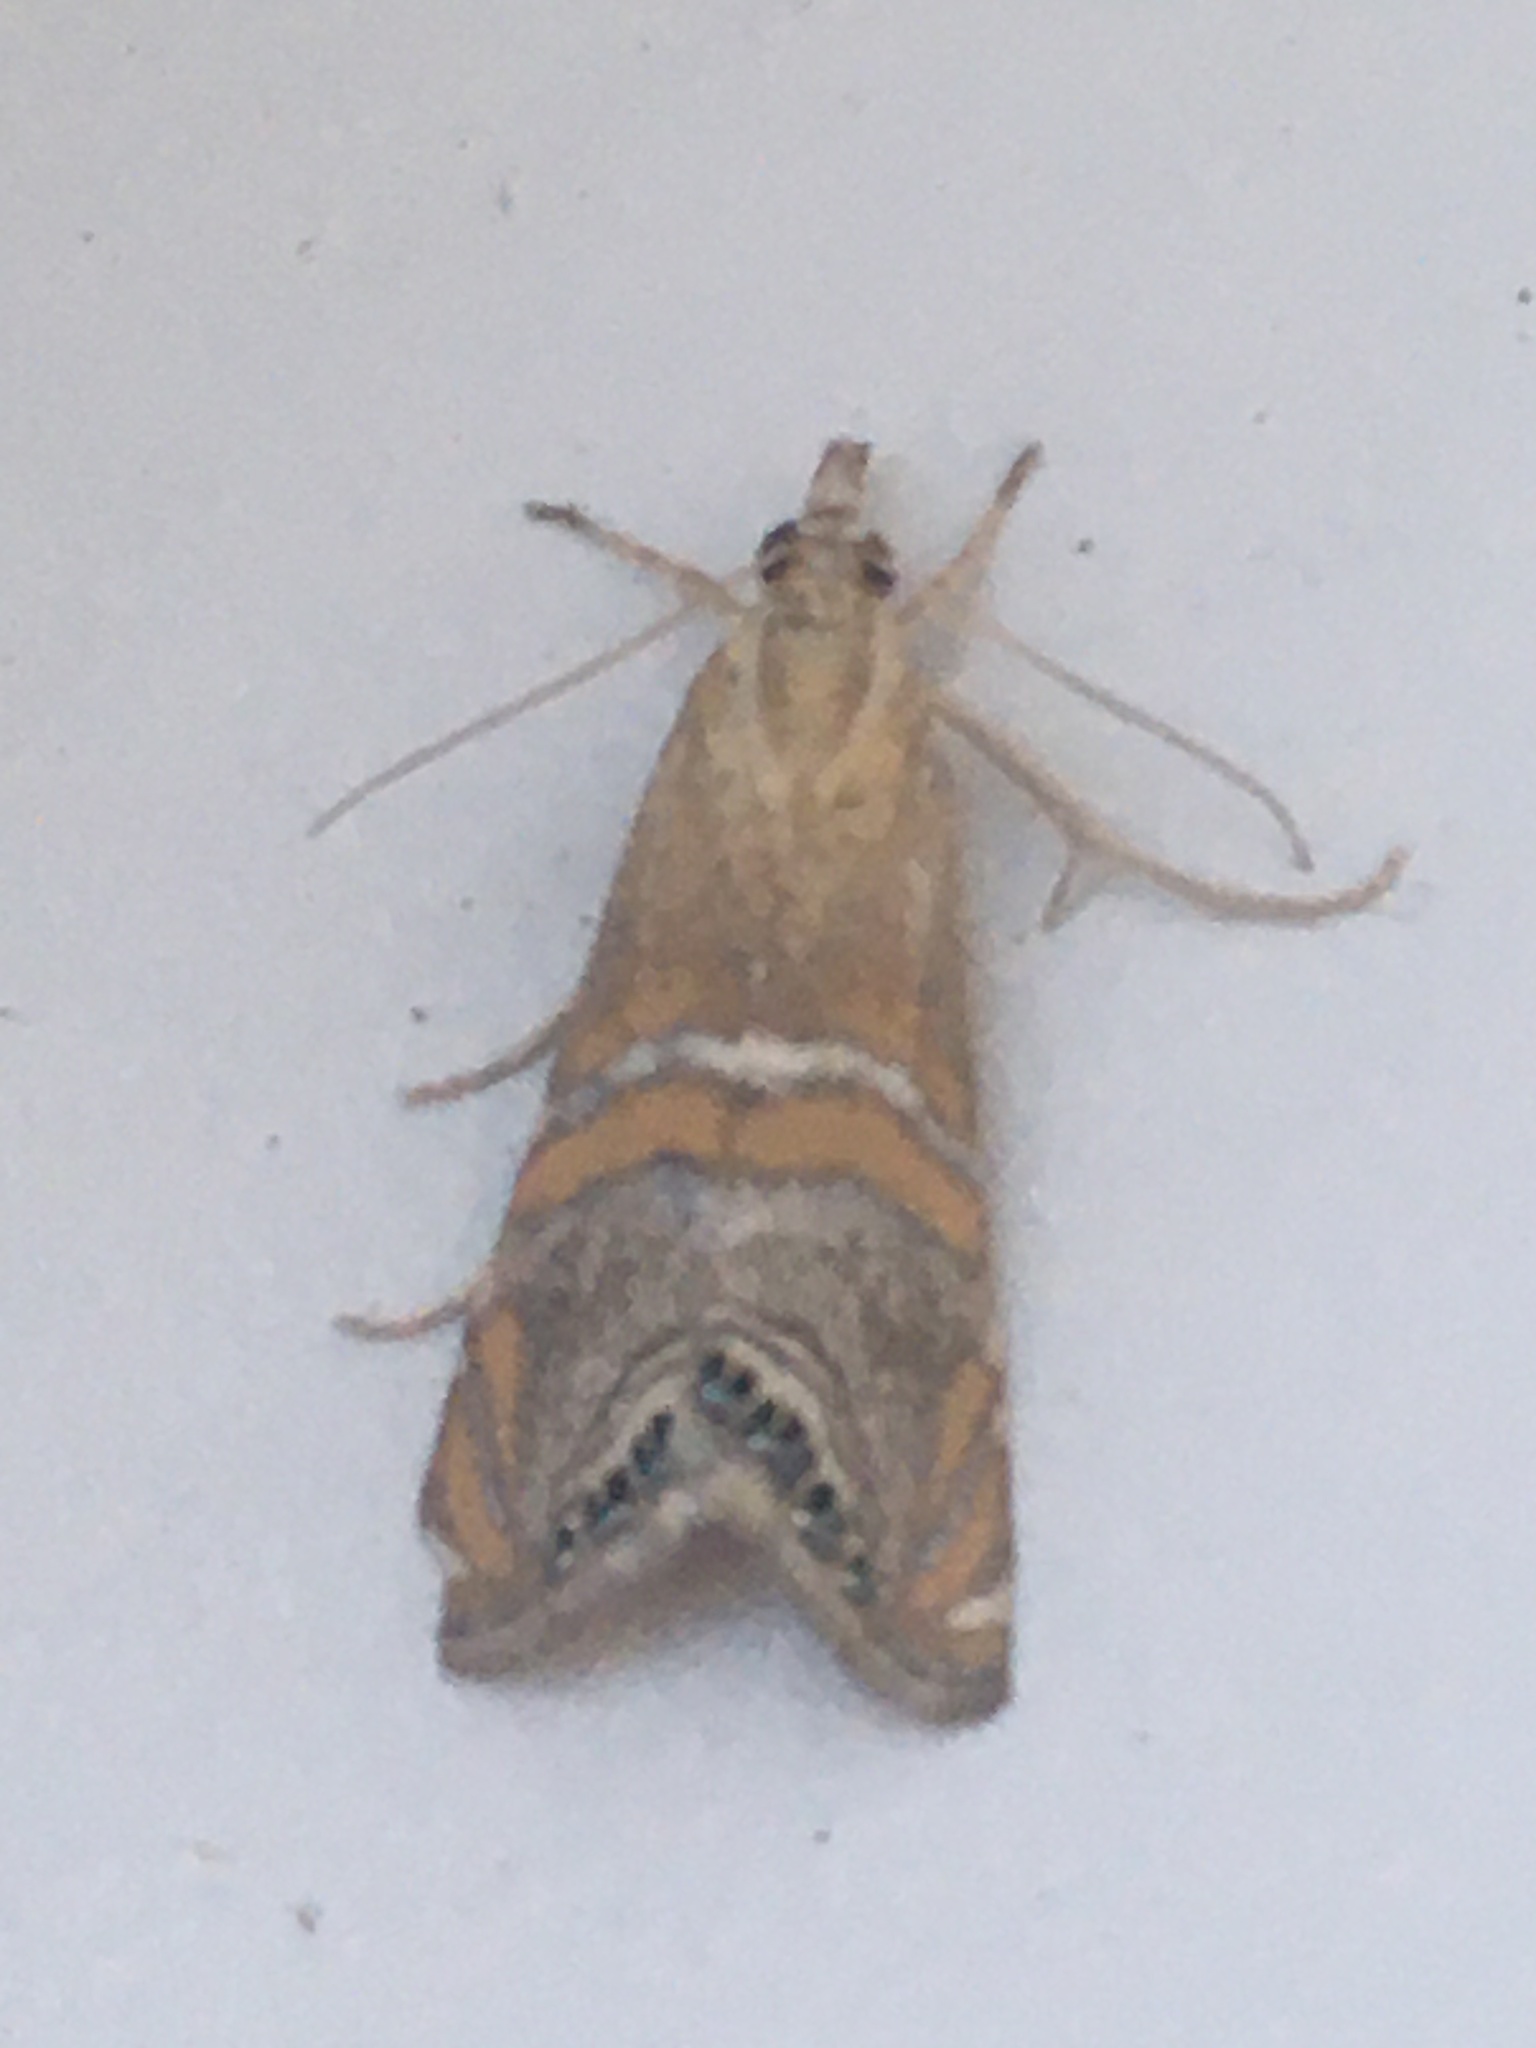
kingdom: Animalia
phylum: Arthropoda
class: Insecta
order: Lepidoptera
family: Crambidae
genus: Euchromius
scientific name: Euchromius bella
